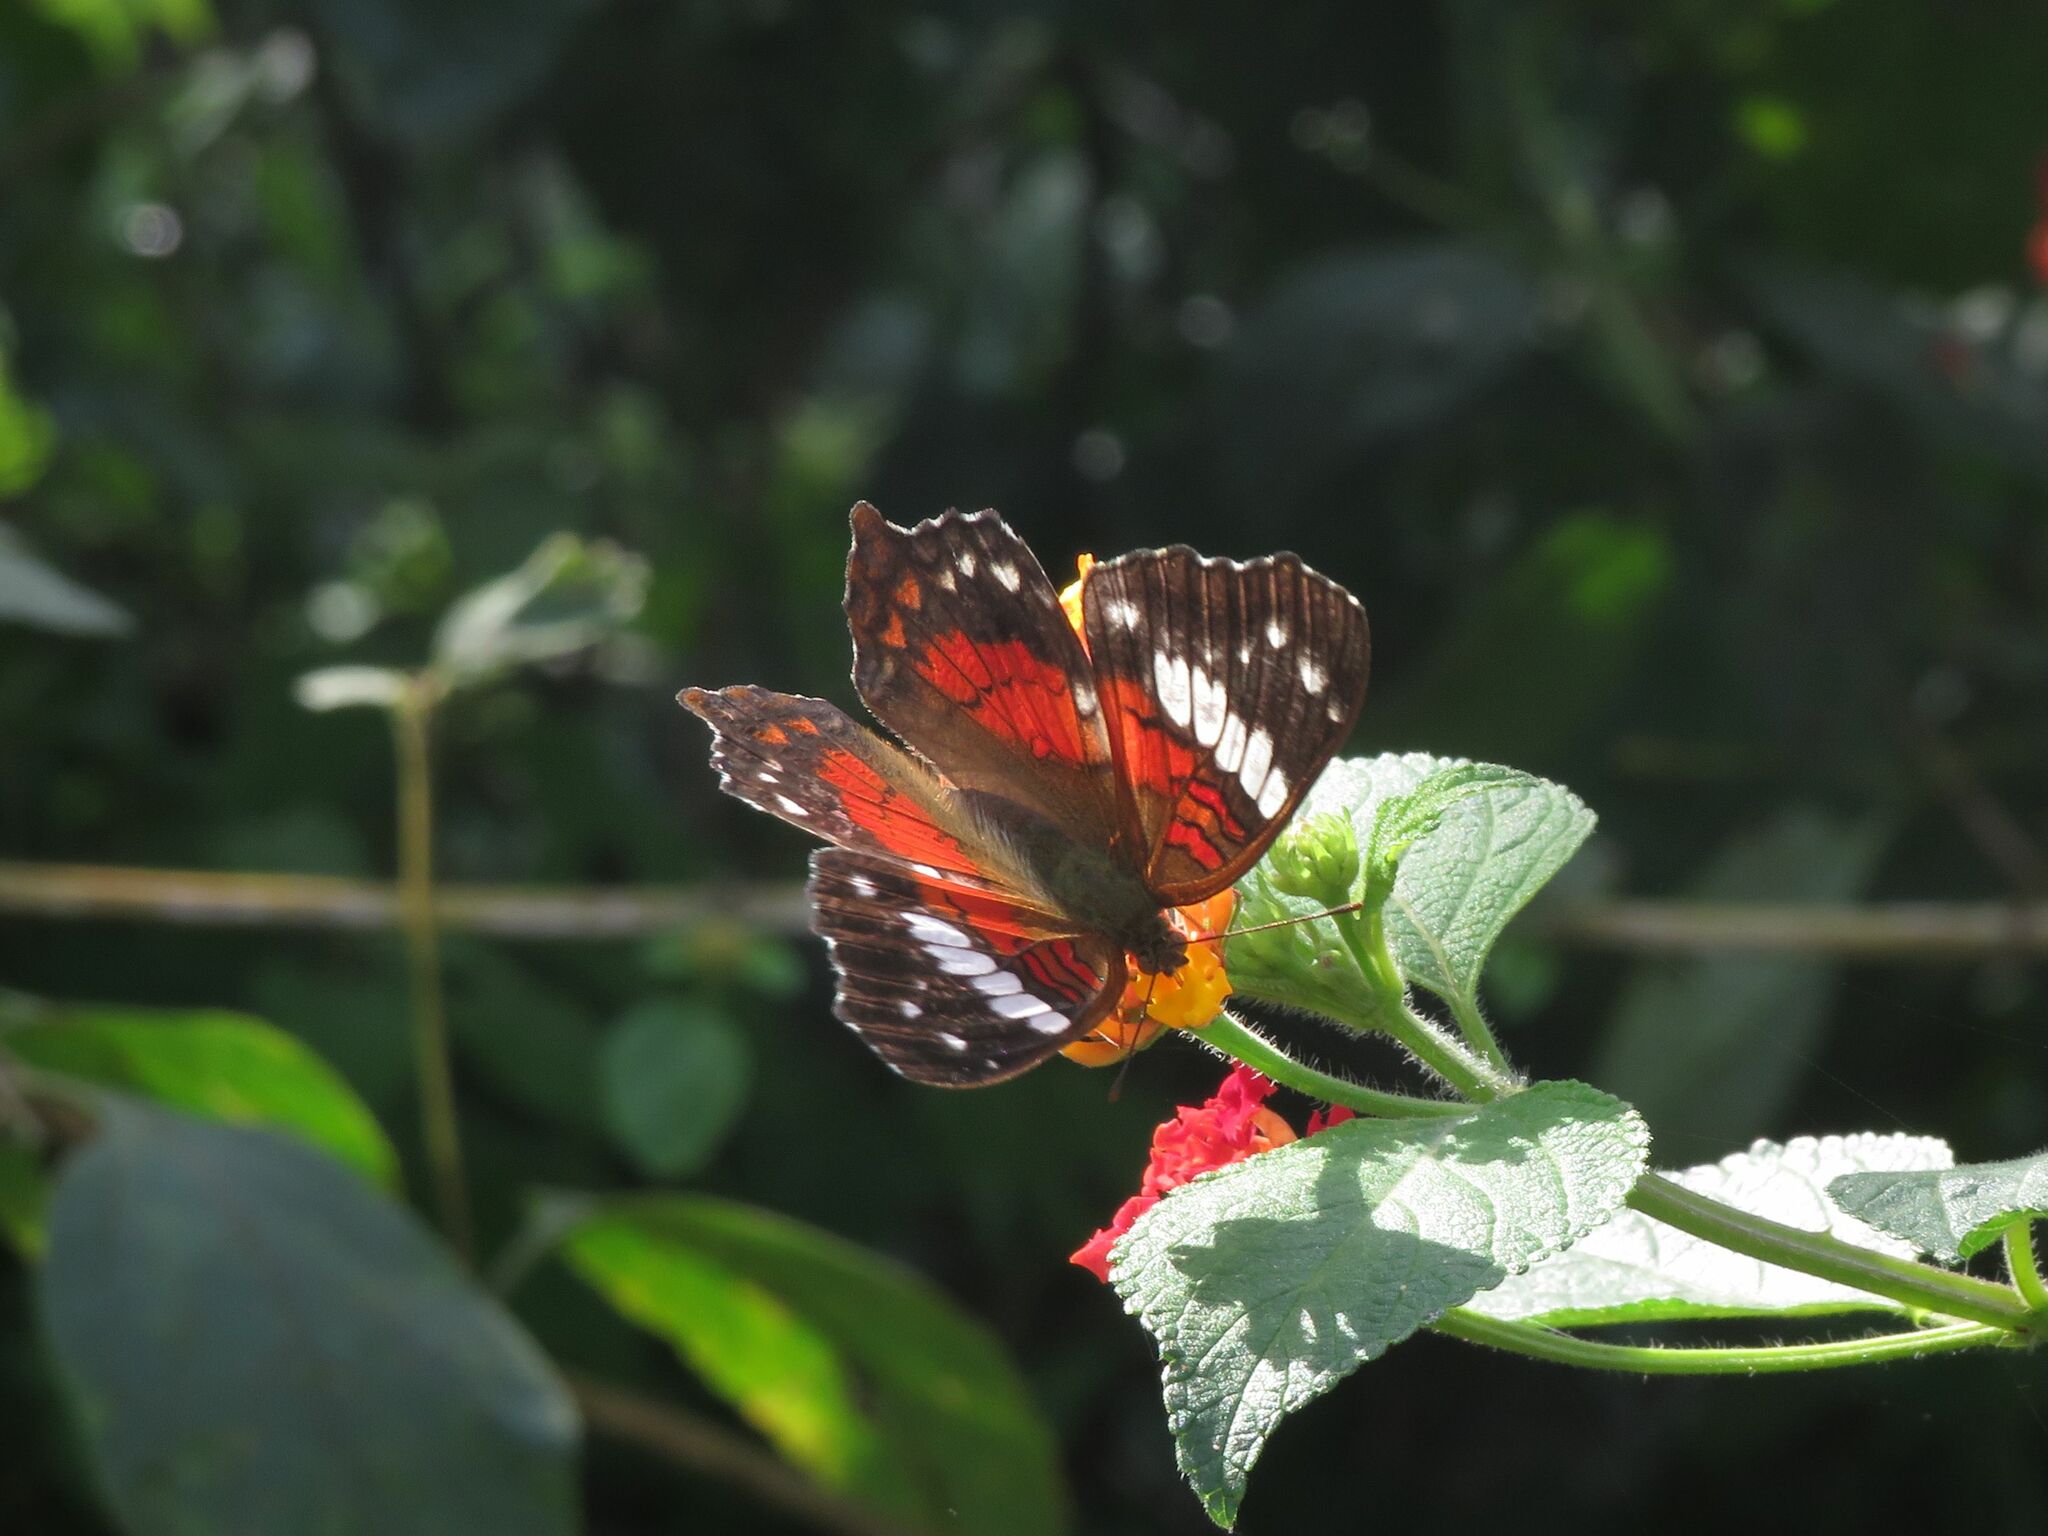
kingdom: Animalia
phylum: Arthropoda
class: Insecta
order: Lepidoptera
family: Nymphalidae
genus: Anartia
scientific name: Anartia amathea
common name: Red peacock
